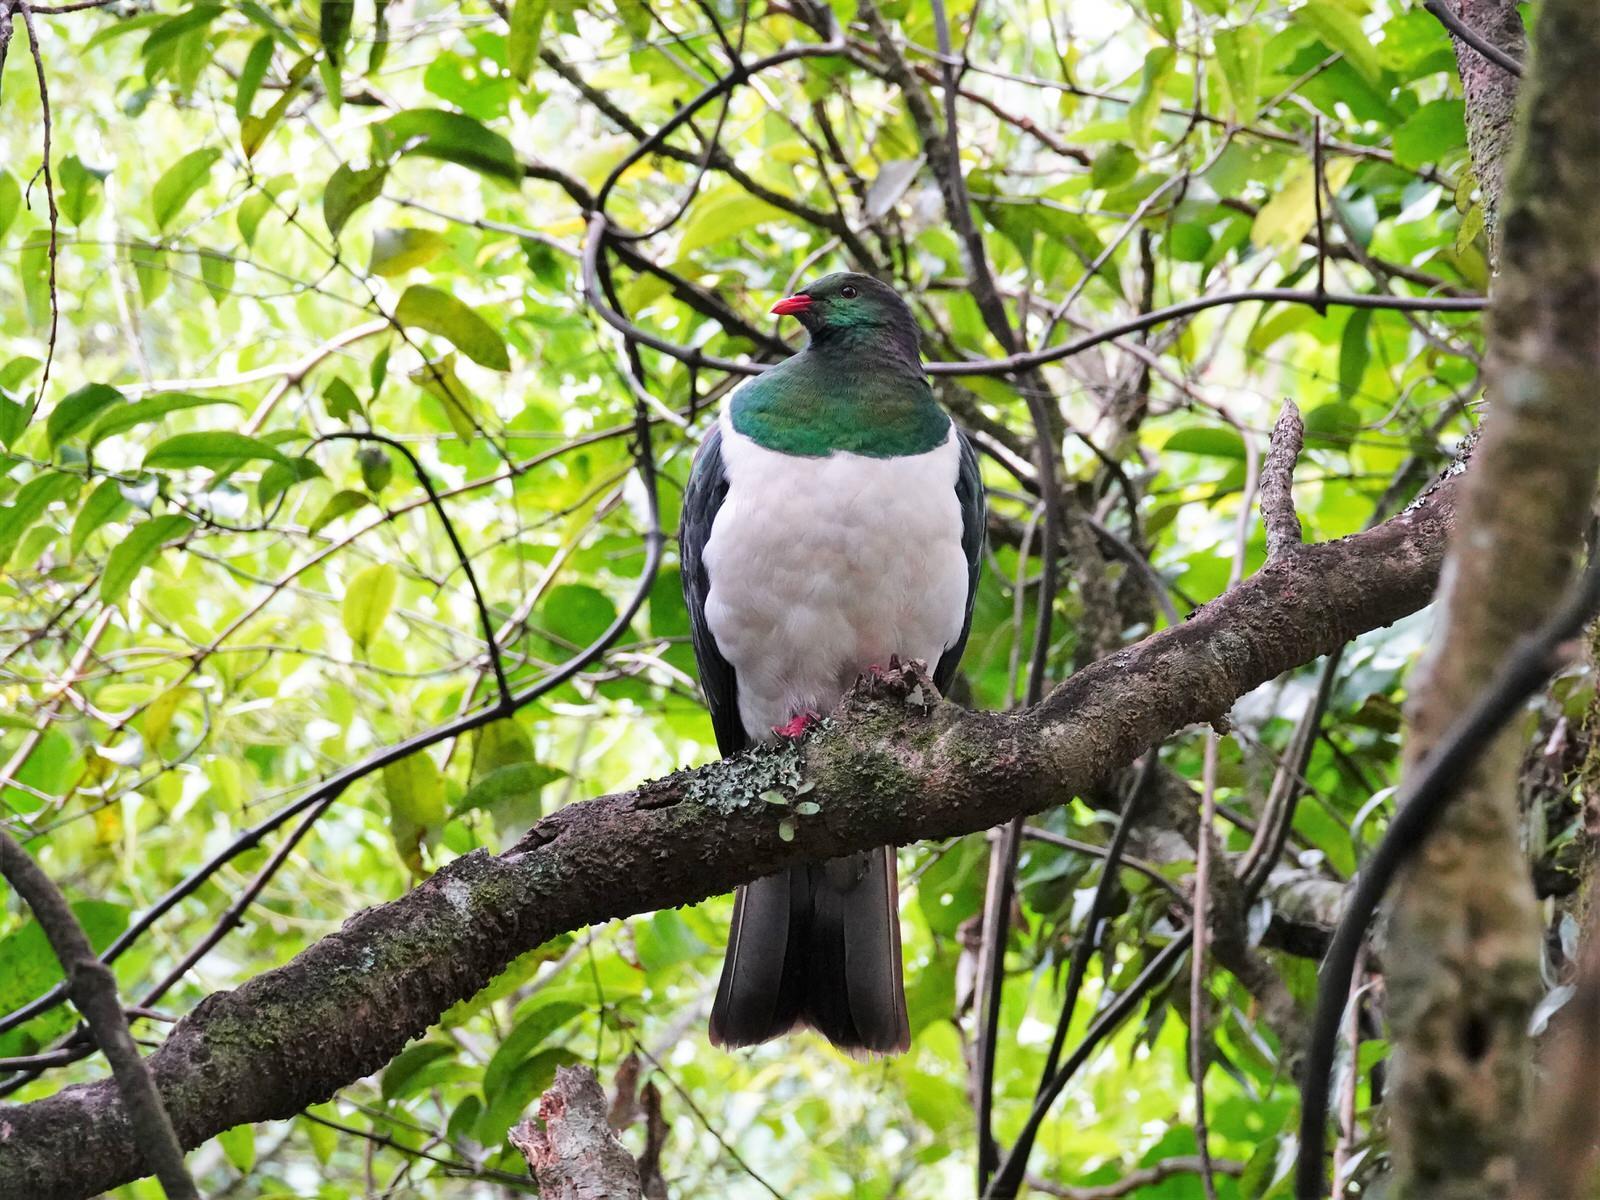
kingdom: Animalia
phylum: Chordata
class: Aves
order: Columbiformes
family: Columbidae
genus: Hemiphaga
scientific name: Hemiphaga novaeseelandiae
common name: New zealand pigeon
